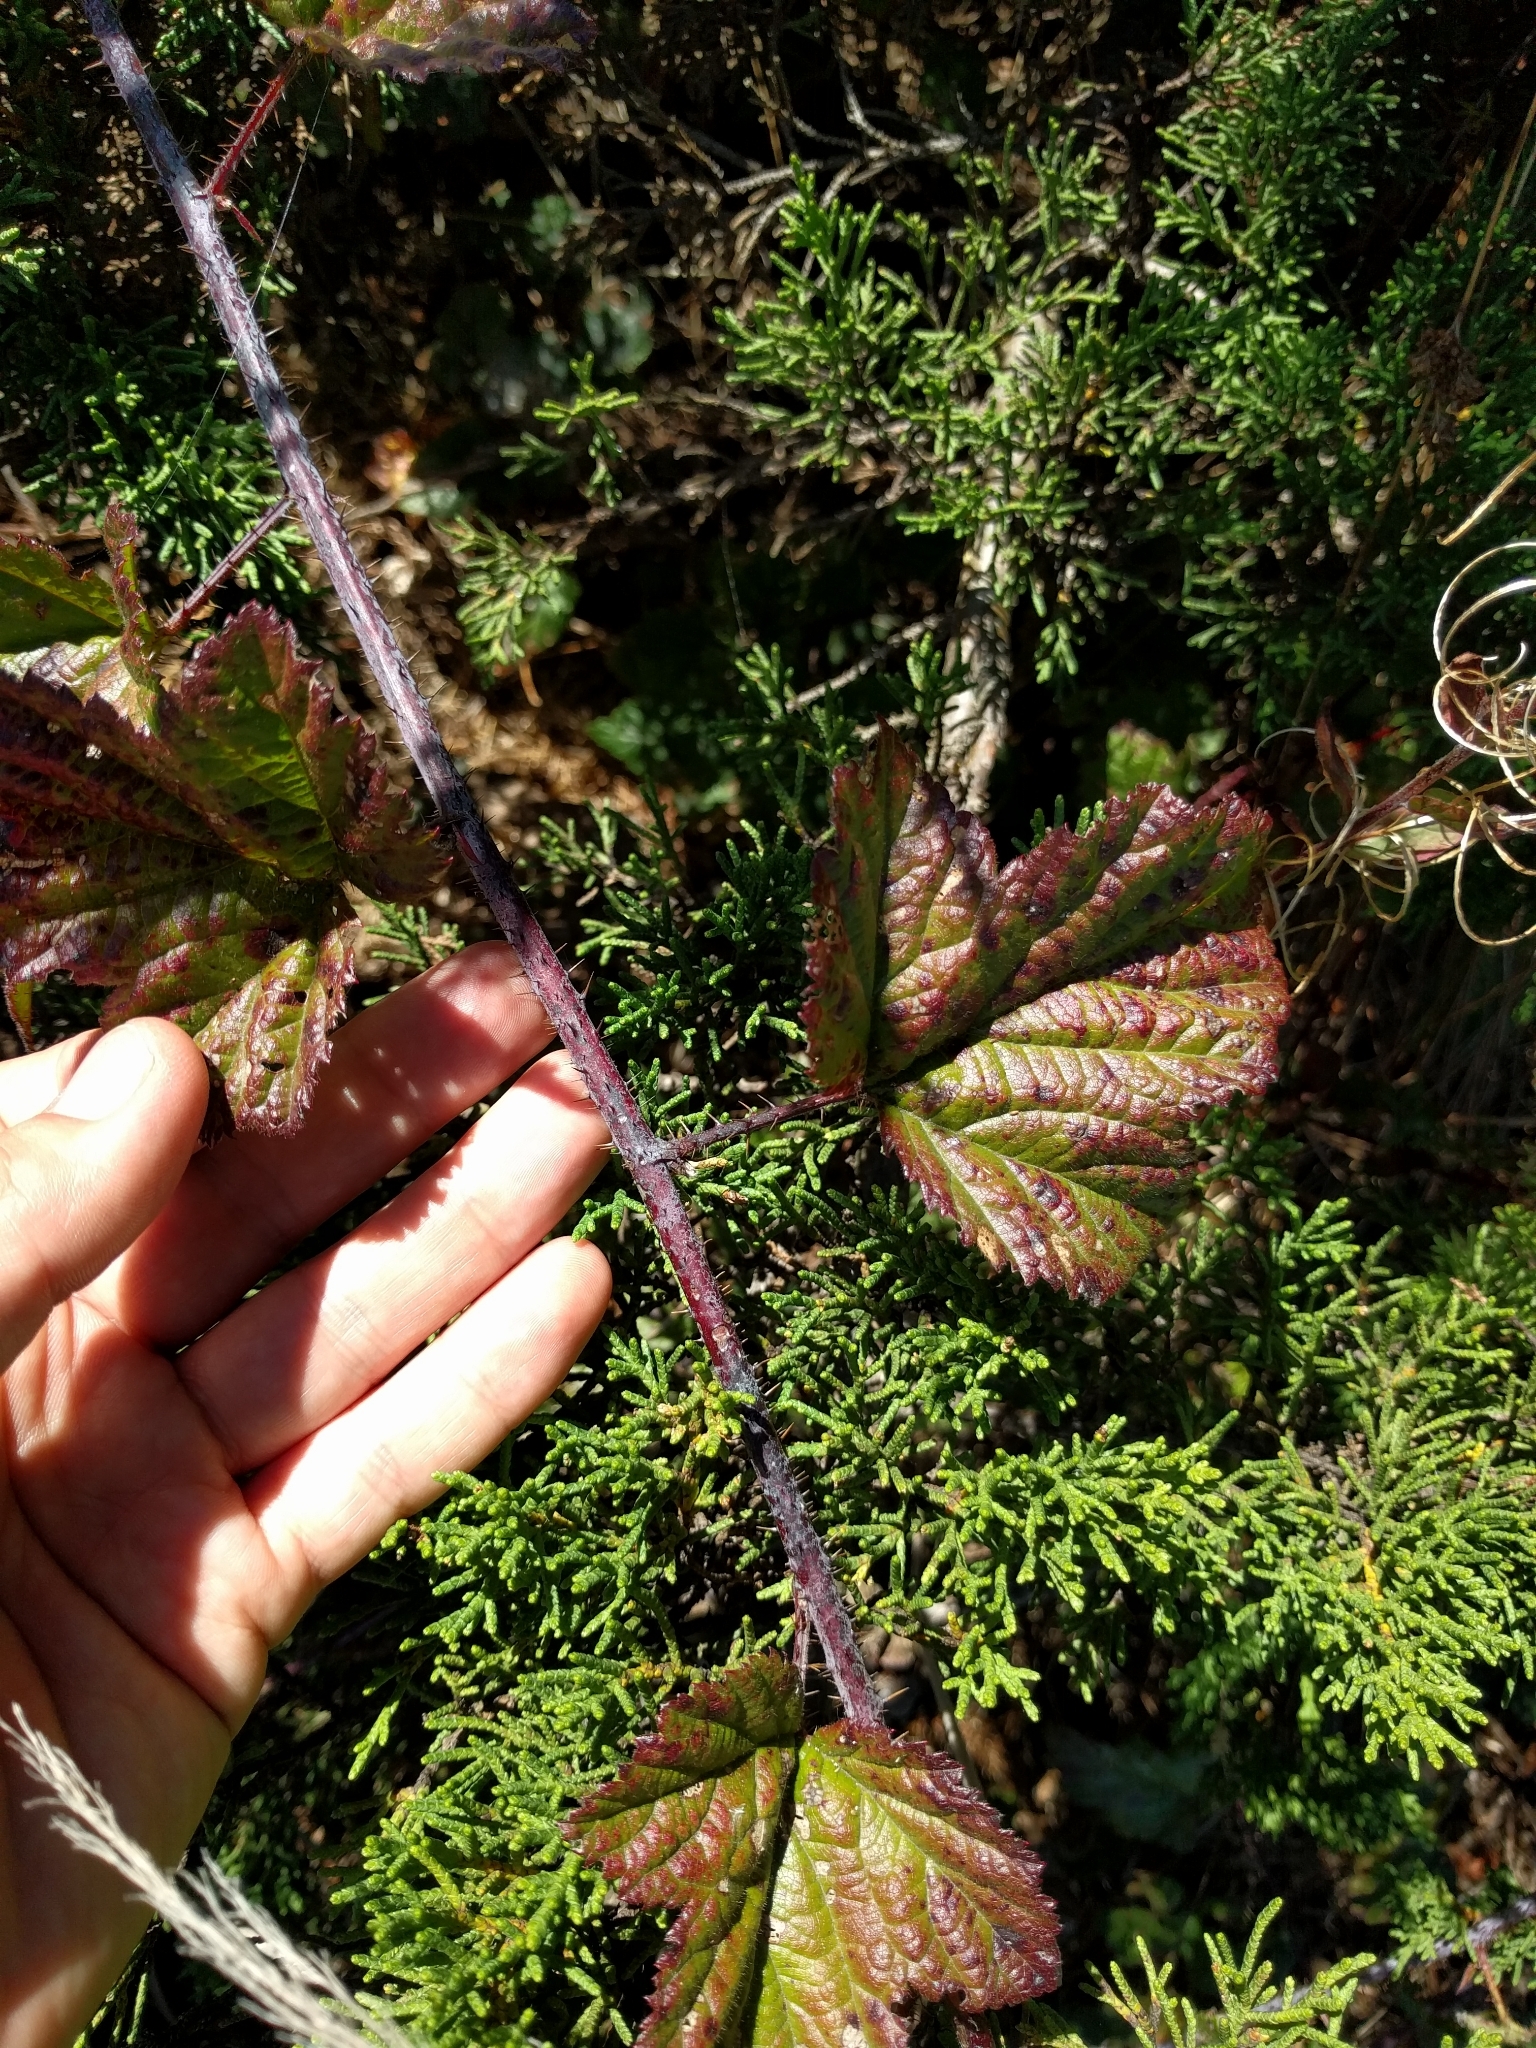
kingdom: Plantae
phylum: Tracheophyta
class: Magnoliopsida
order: Rosales
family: Rosaceae
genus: Rubus
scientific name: Rubus ursinus
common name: Pacific blackberry
